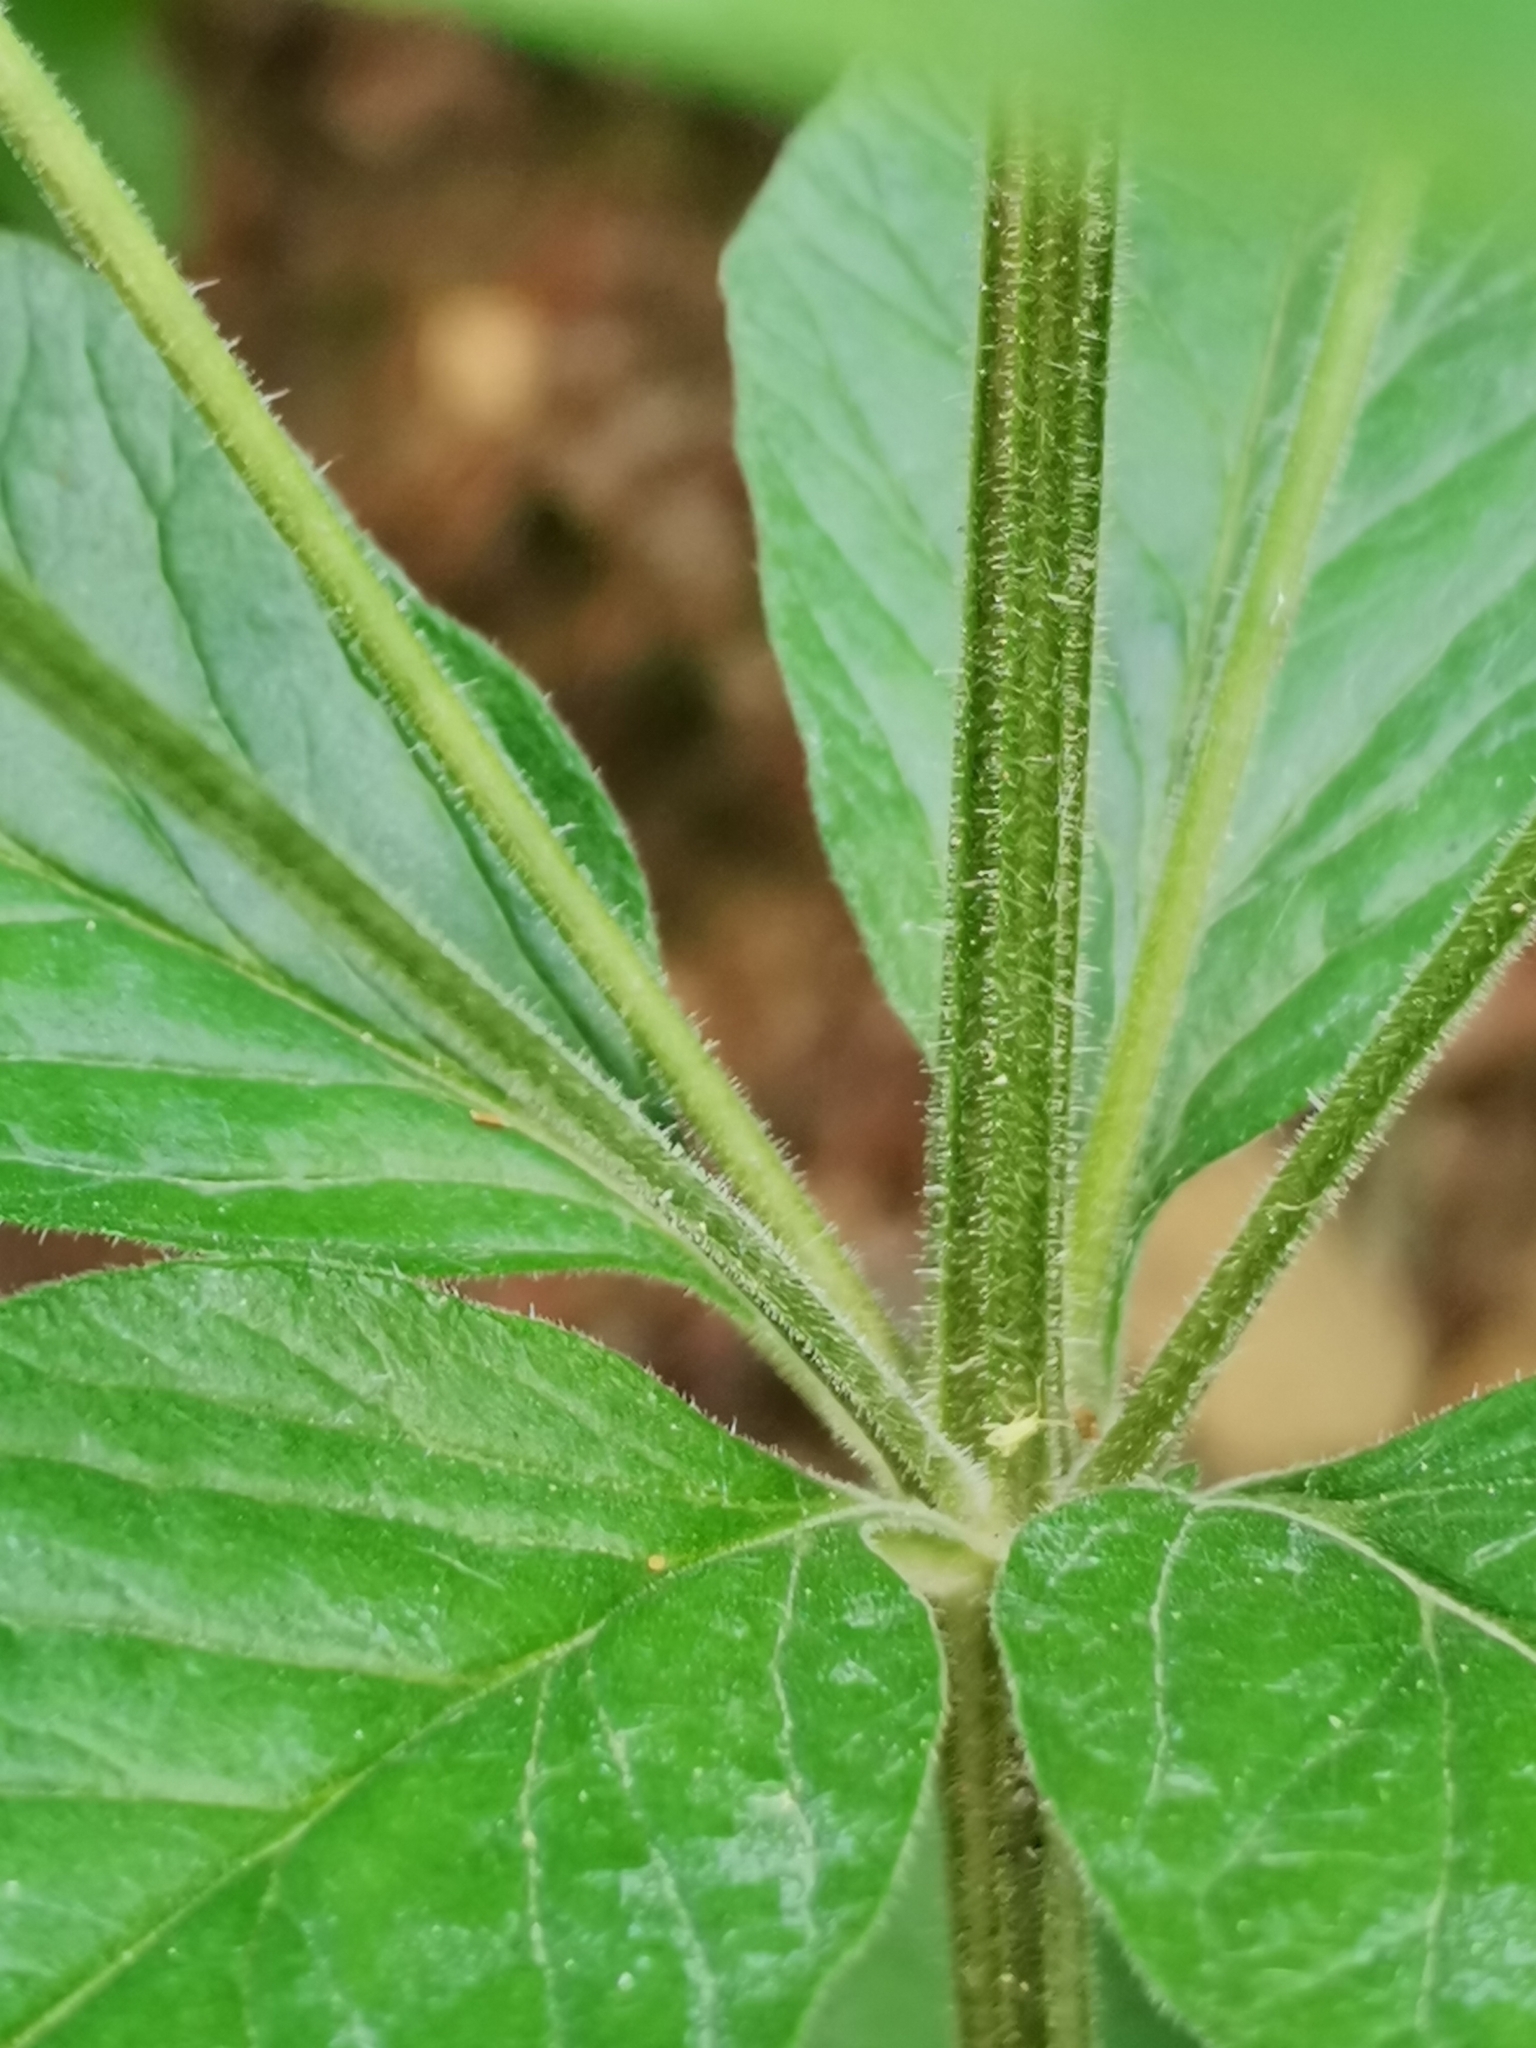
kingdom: Plantae
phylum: Tracheophyta
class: Magnoliopsida
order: Ericales
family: Primulaceae
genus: Lysimachia
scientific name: Lysimachia punctata
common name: Dotted loosestrife
